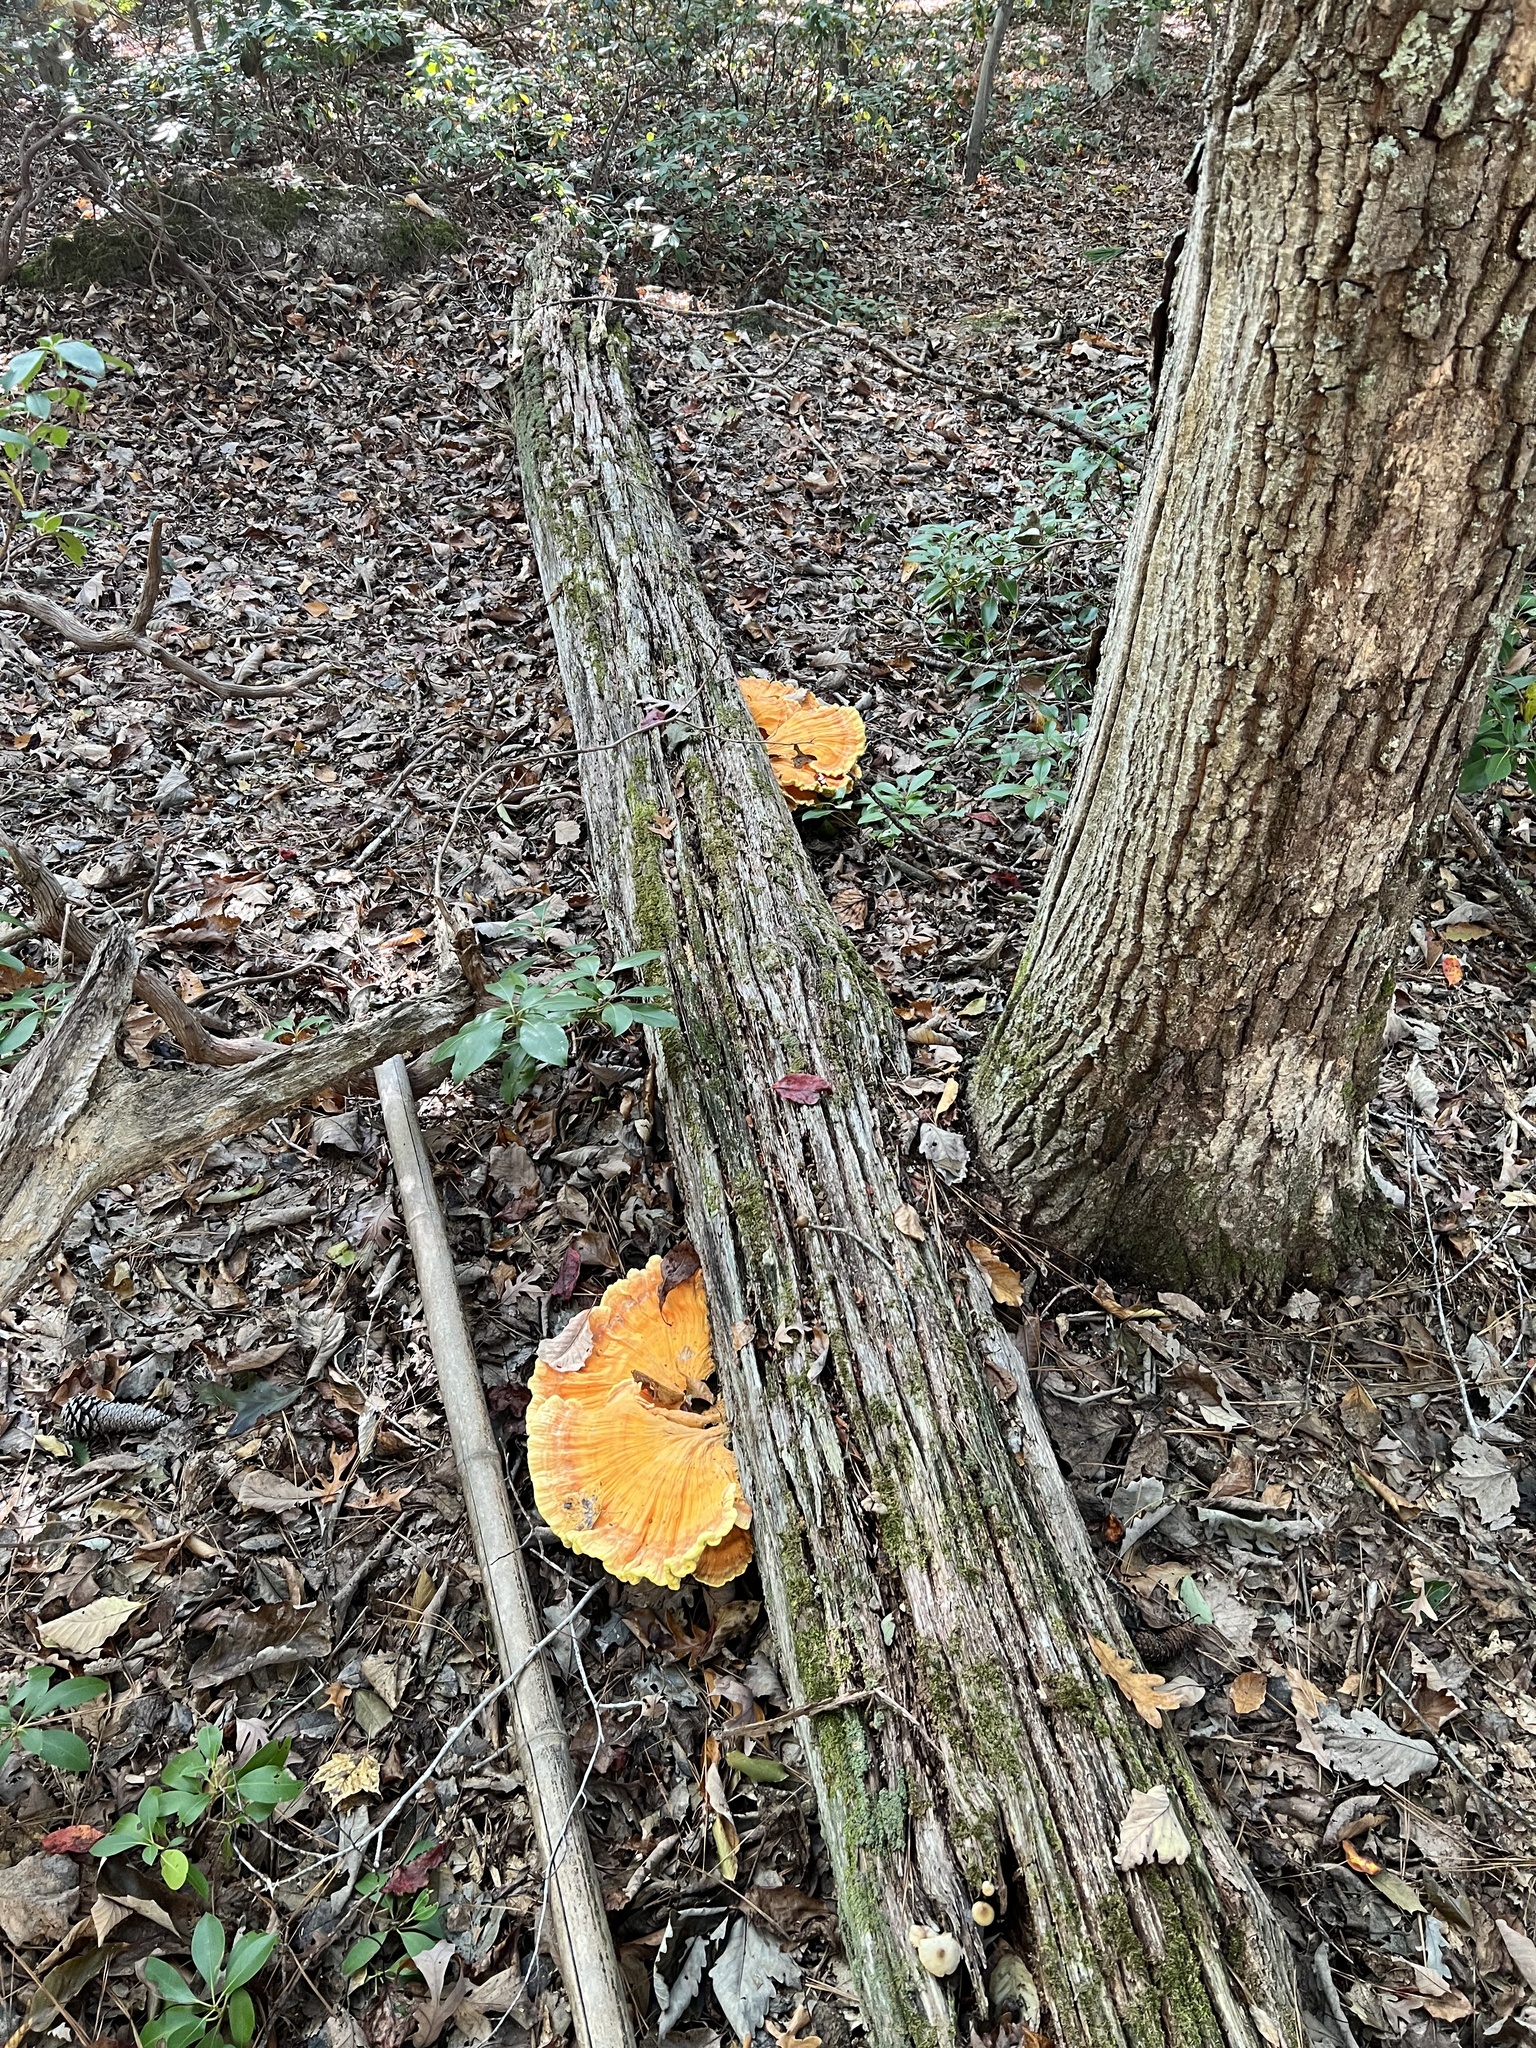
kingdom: Fungi
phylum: Basidiomycota
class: Agaricomycetes
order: Polyporales
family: Laetiporaceae
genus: Laetiporus
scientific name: Laetiporus sulphureus
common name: Chicken of the woods
